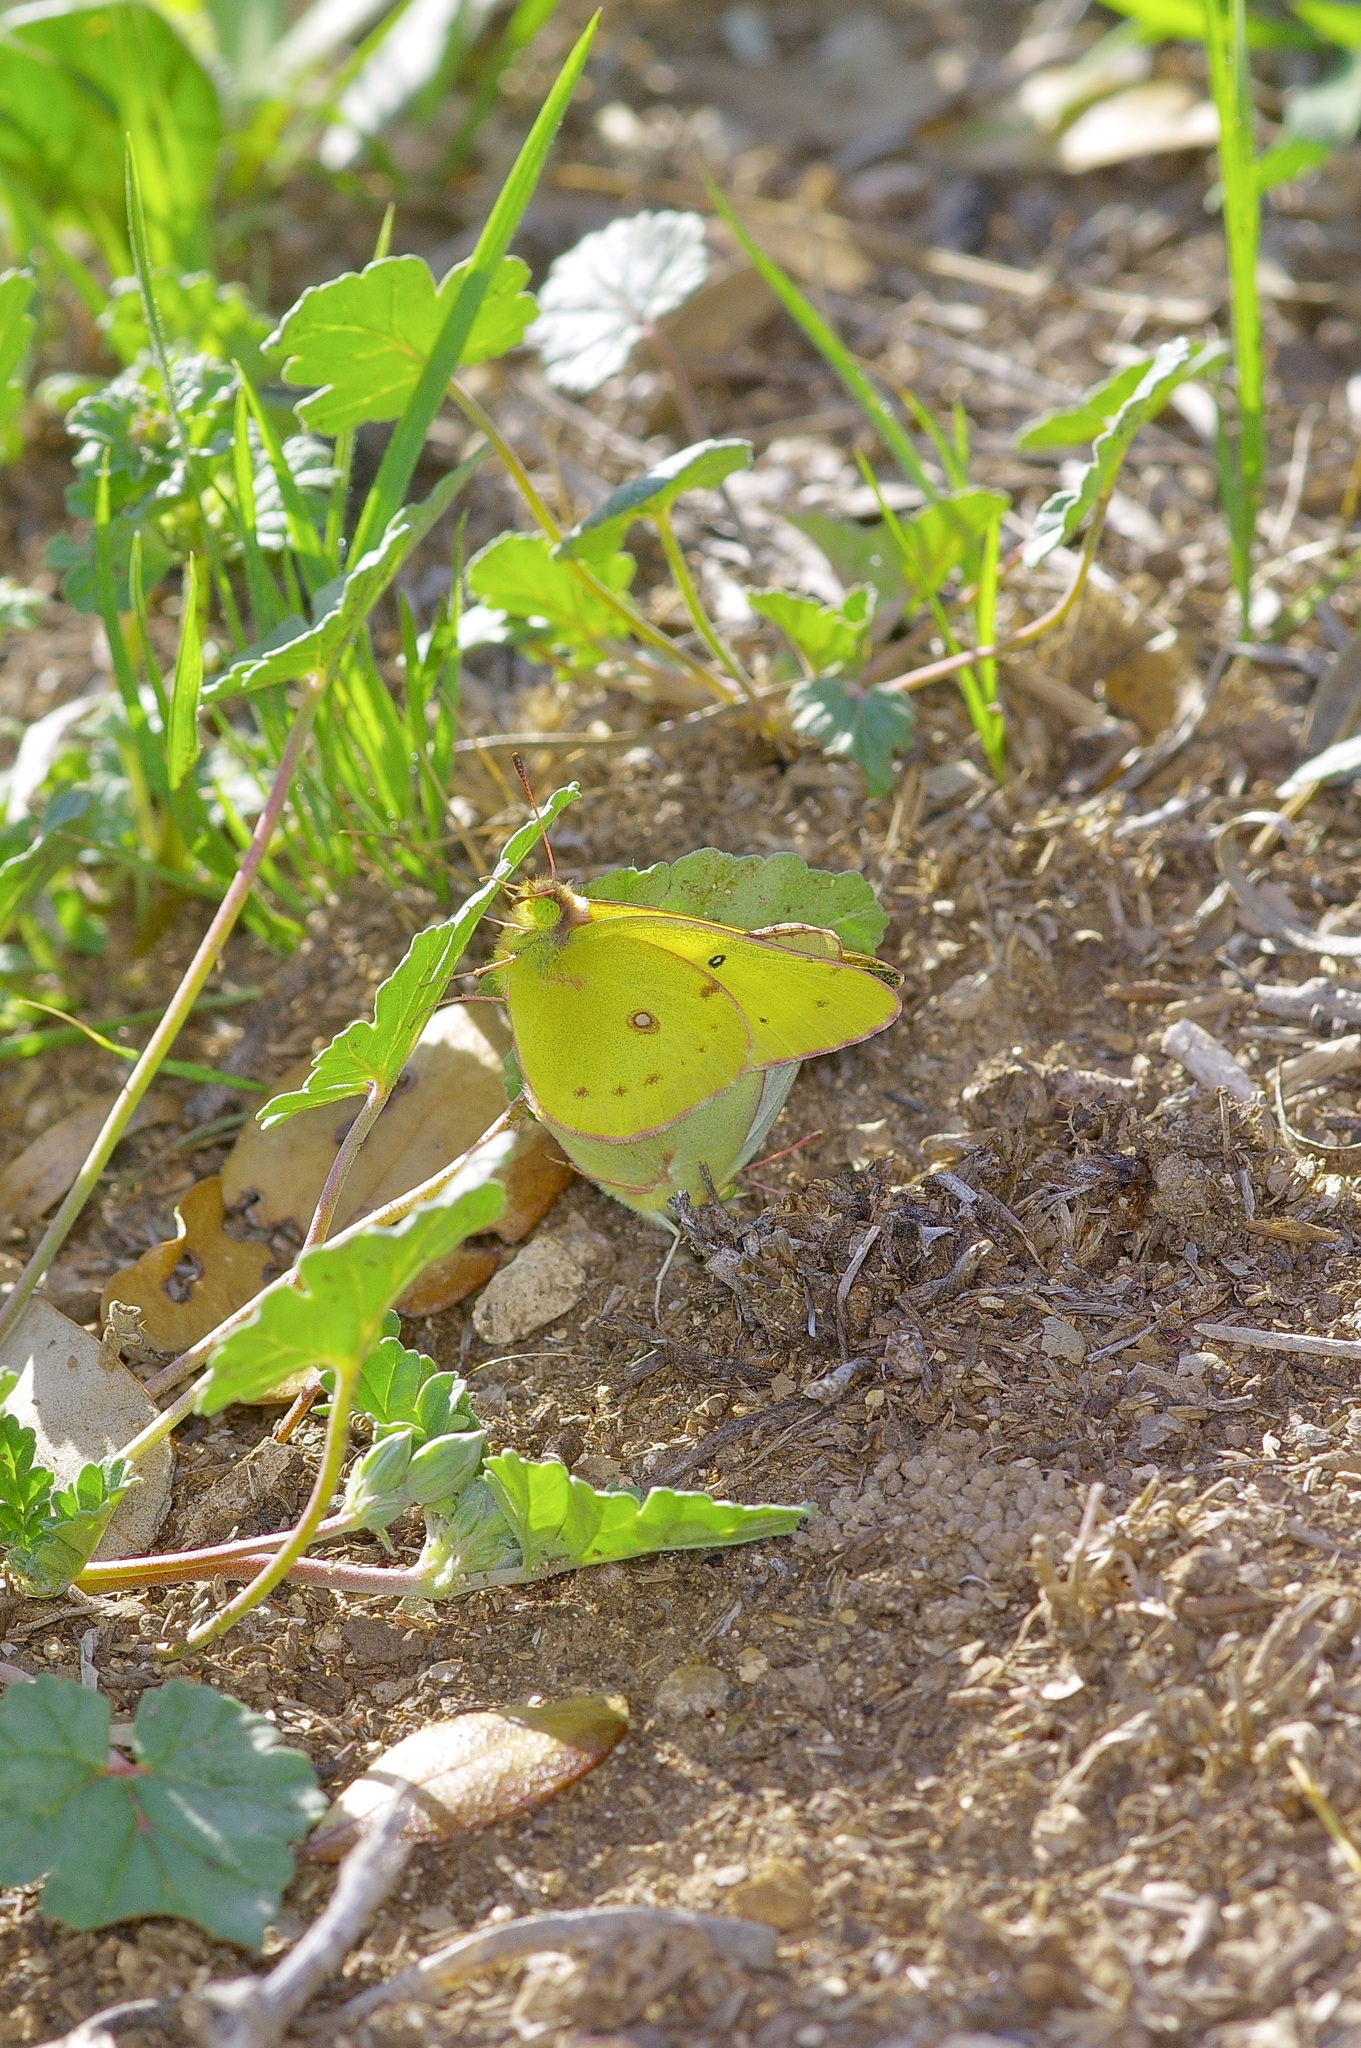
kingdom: Animalia
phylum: Arthropoda
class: Insecta
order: Lepidoptera
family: Pieridae
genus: Colias
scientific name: Colias eurytheme
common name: Alfalfa butterfly
